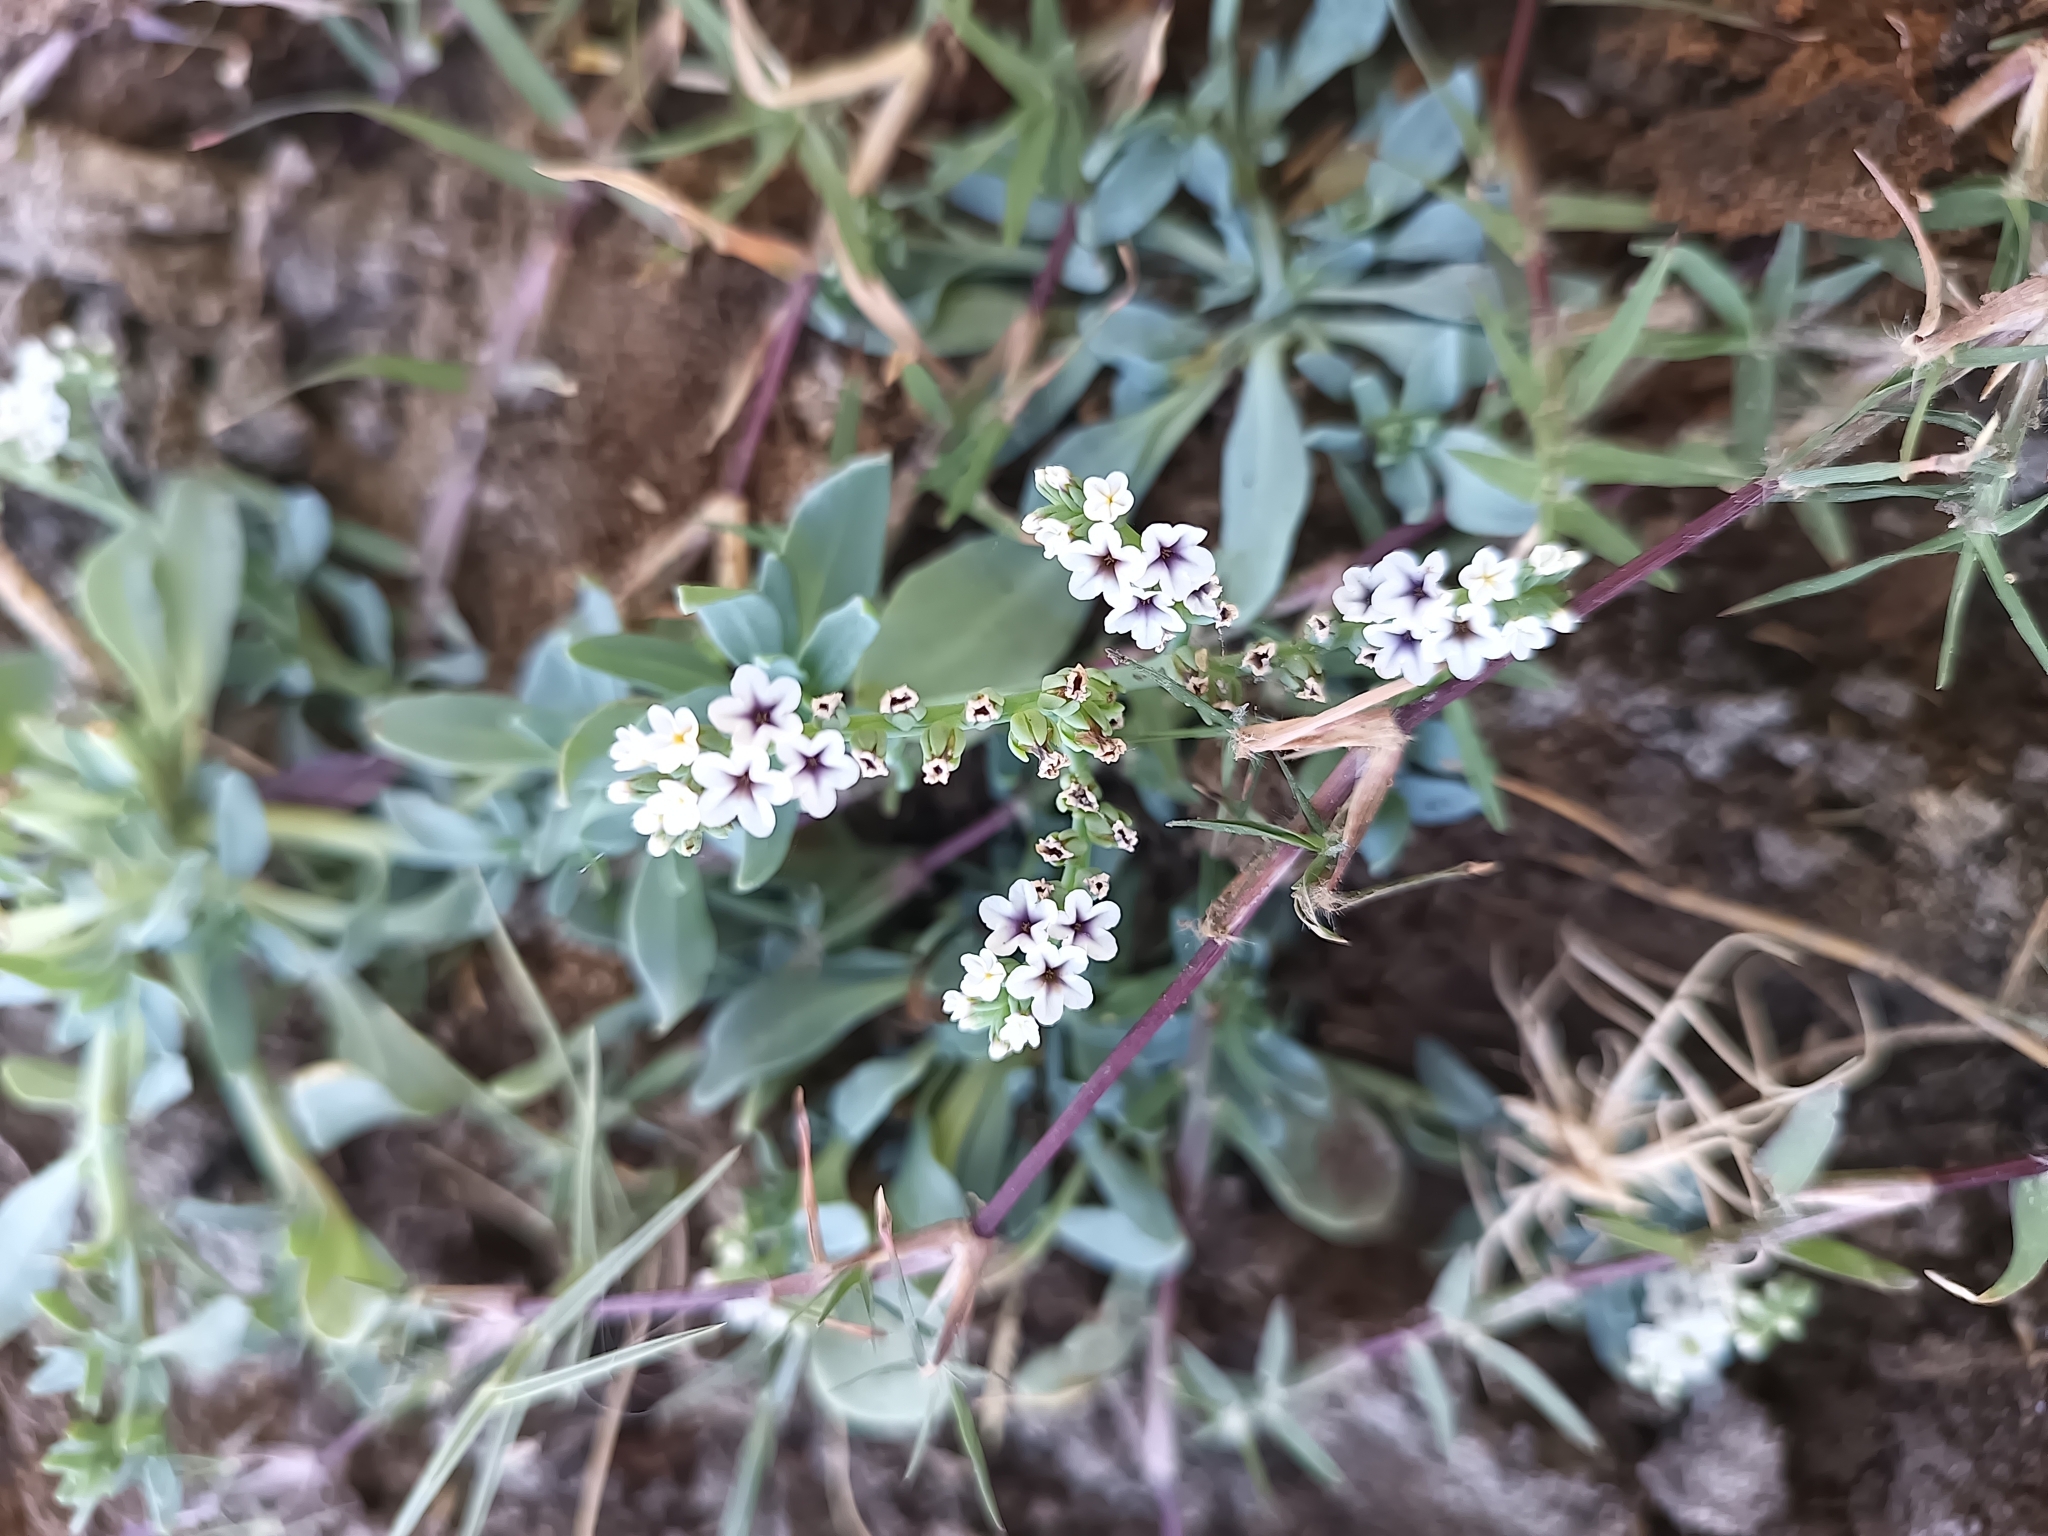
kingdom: Plantae
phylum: Tracheophyta
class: Magnoliopsida
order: Boraginales
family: Heliotropiaceae
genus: Heliotropium
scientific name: Heliotropium curassavicum
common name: Seaside heliotrope
